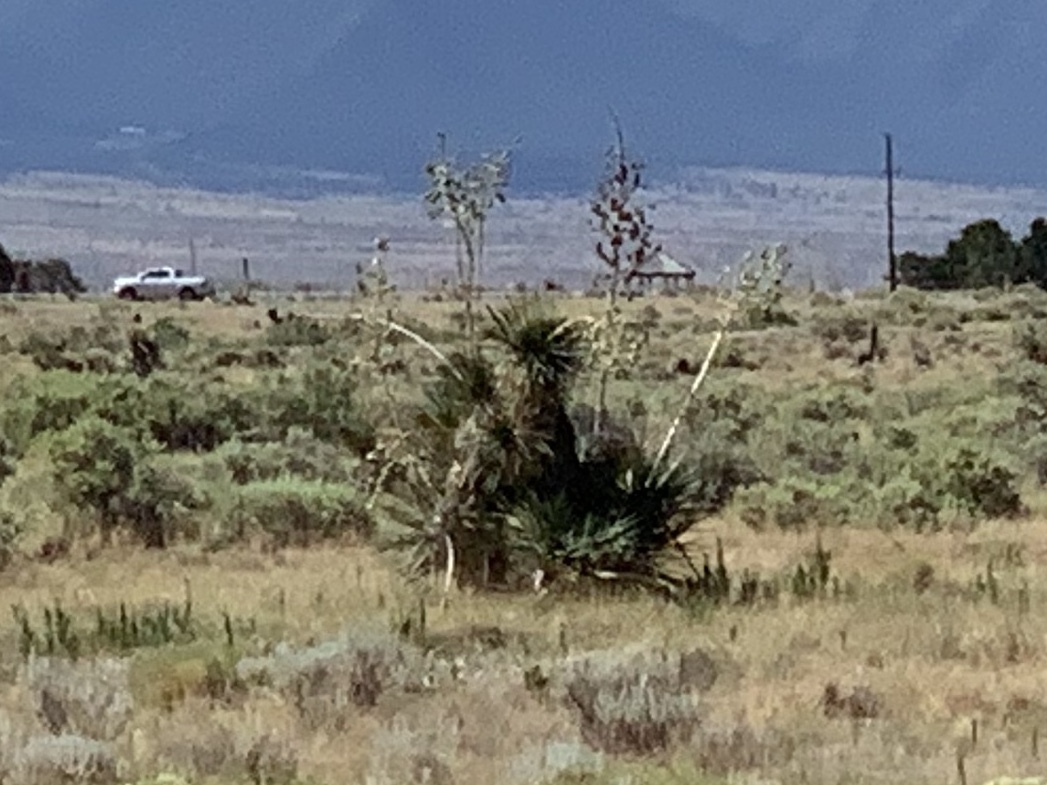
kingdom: Plantae
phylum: Tracheophyta
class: Liliopsida
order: Asparagales
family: Asparagaceae
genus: Yucca
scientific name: Yucca elata
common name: Palmella
